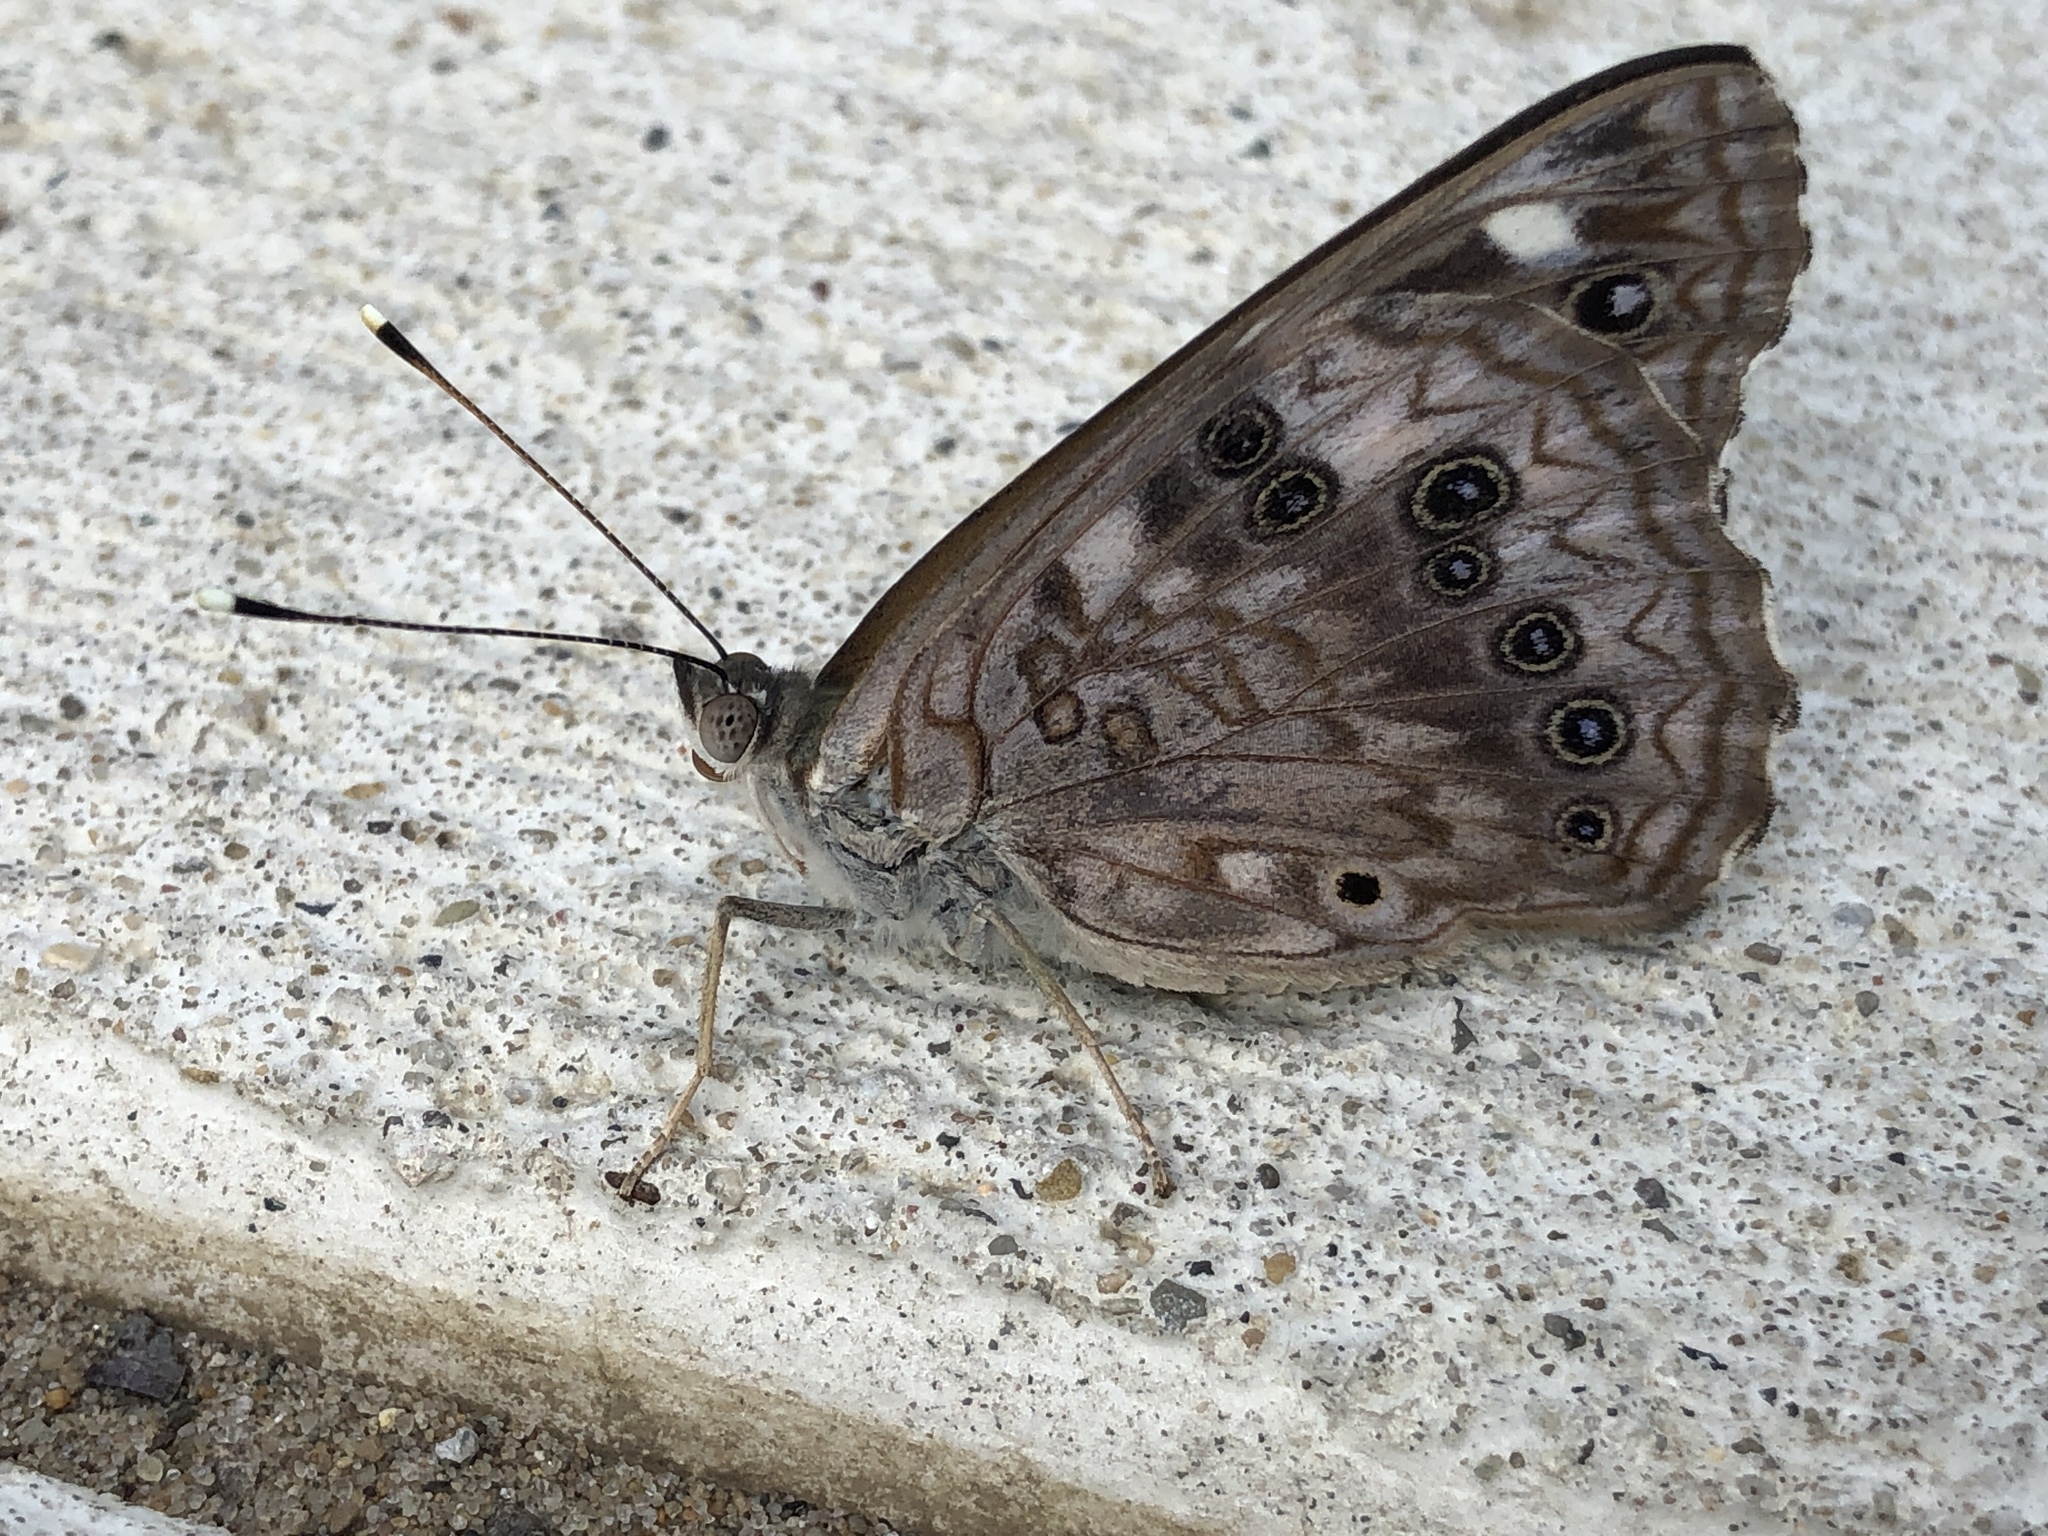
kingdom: Animalia
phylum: Arthropoda
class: Insecta
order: Lepidoptera
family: Nymphalidae
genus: Asterocampa
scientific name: Asterocampa celtis
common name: Hackberry emperor
